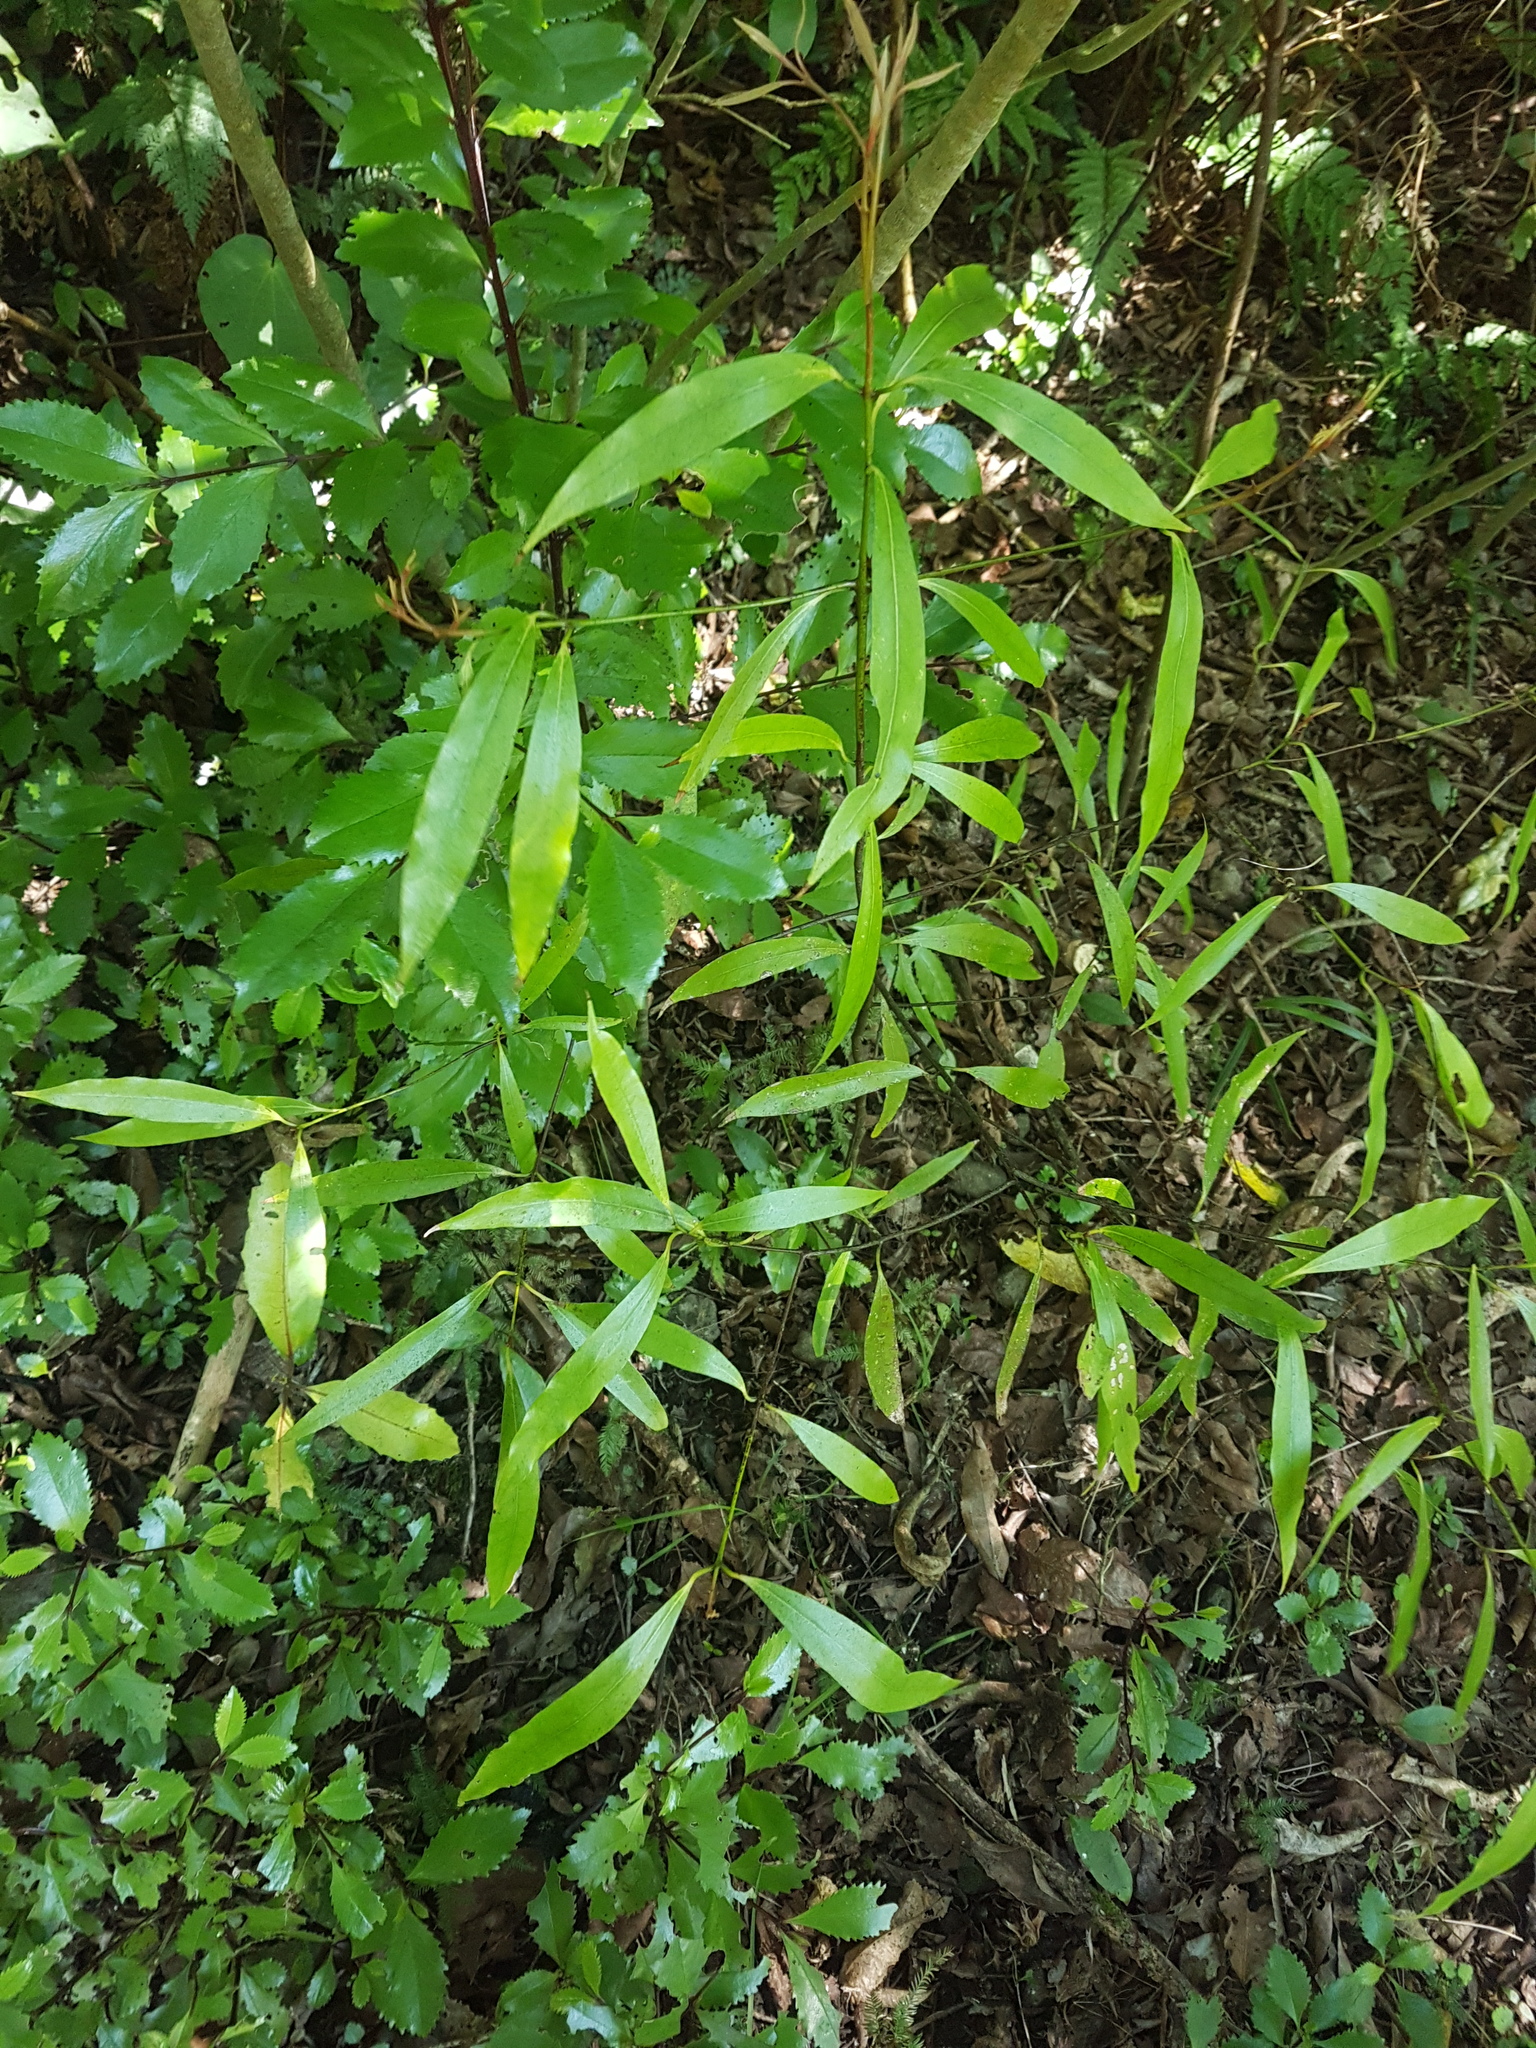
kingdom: Plantae
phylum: Tracheophyta
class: Magnoliopsida
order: Laurales
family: Lauraceae
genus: Beilschmiedia
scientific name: Beilschmiedia tawa
